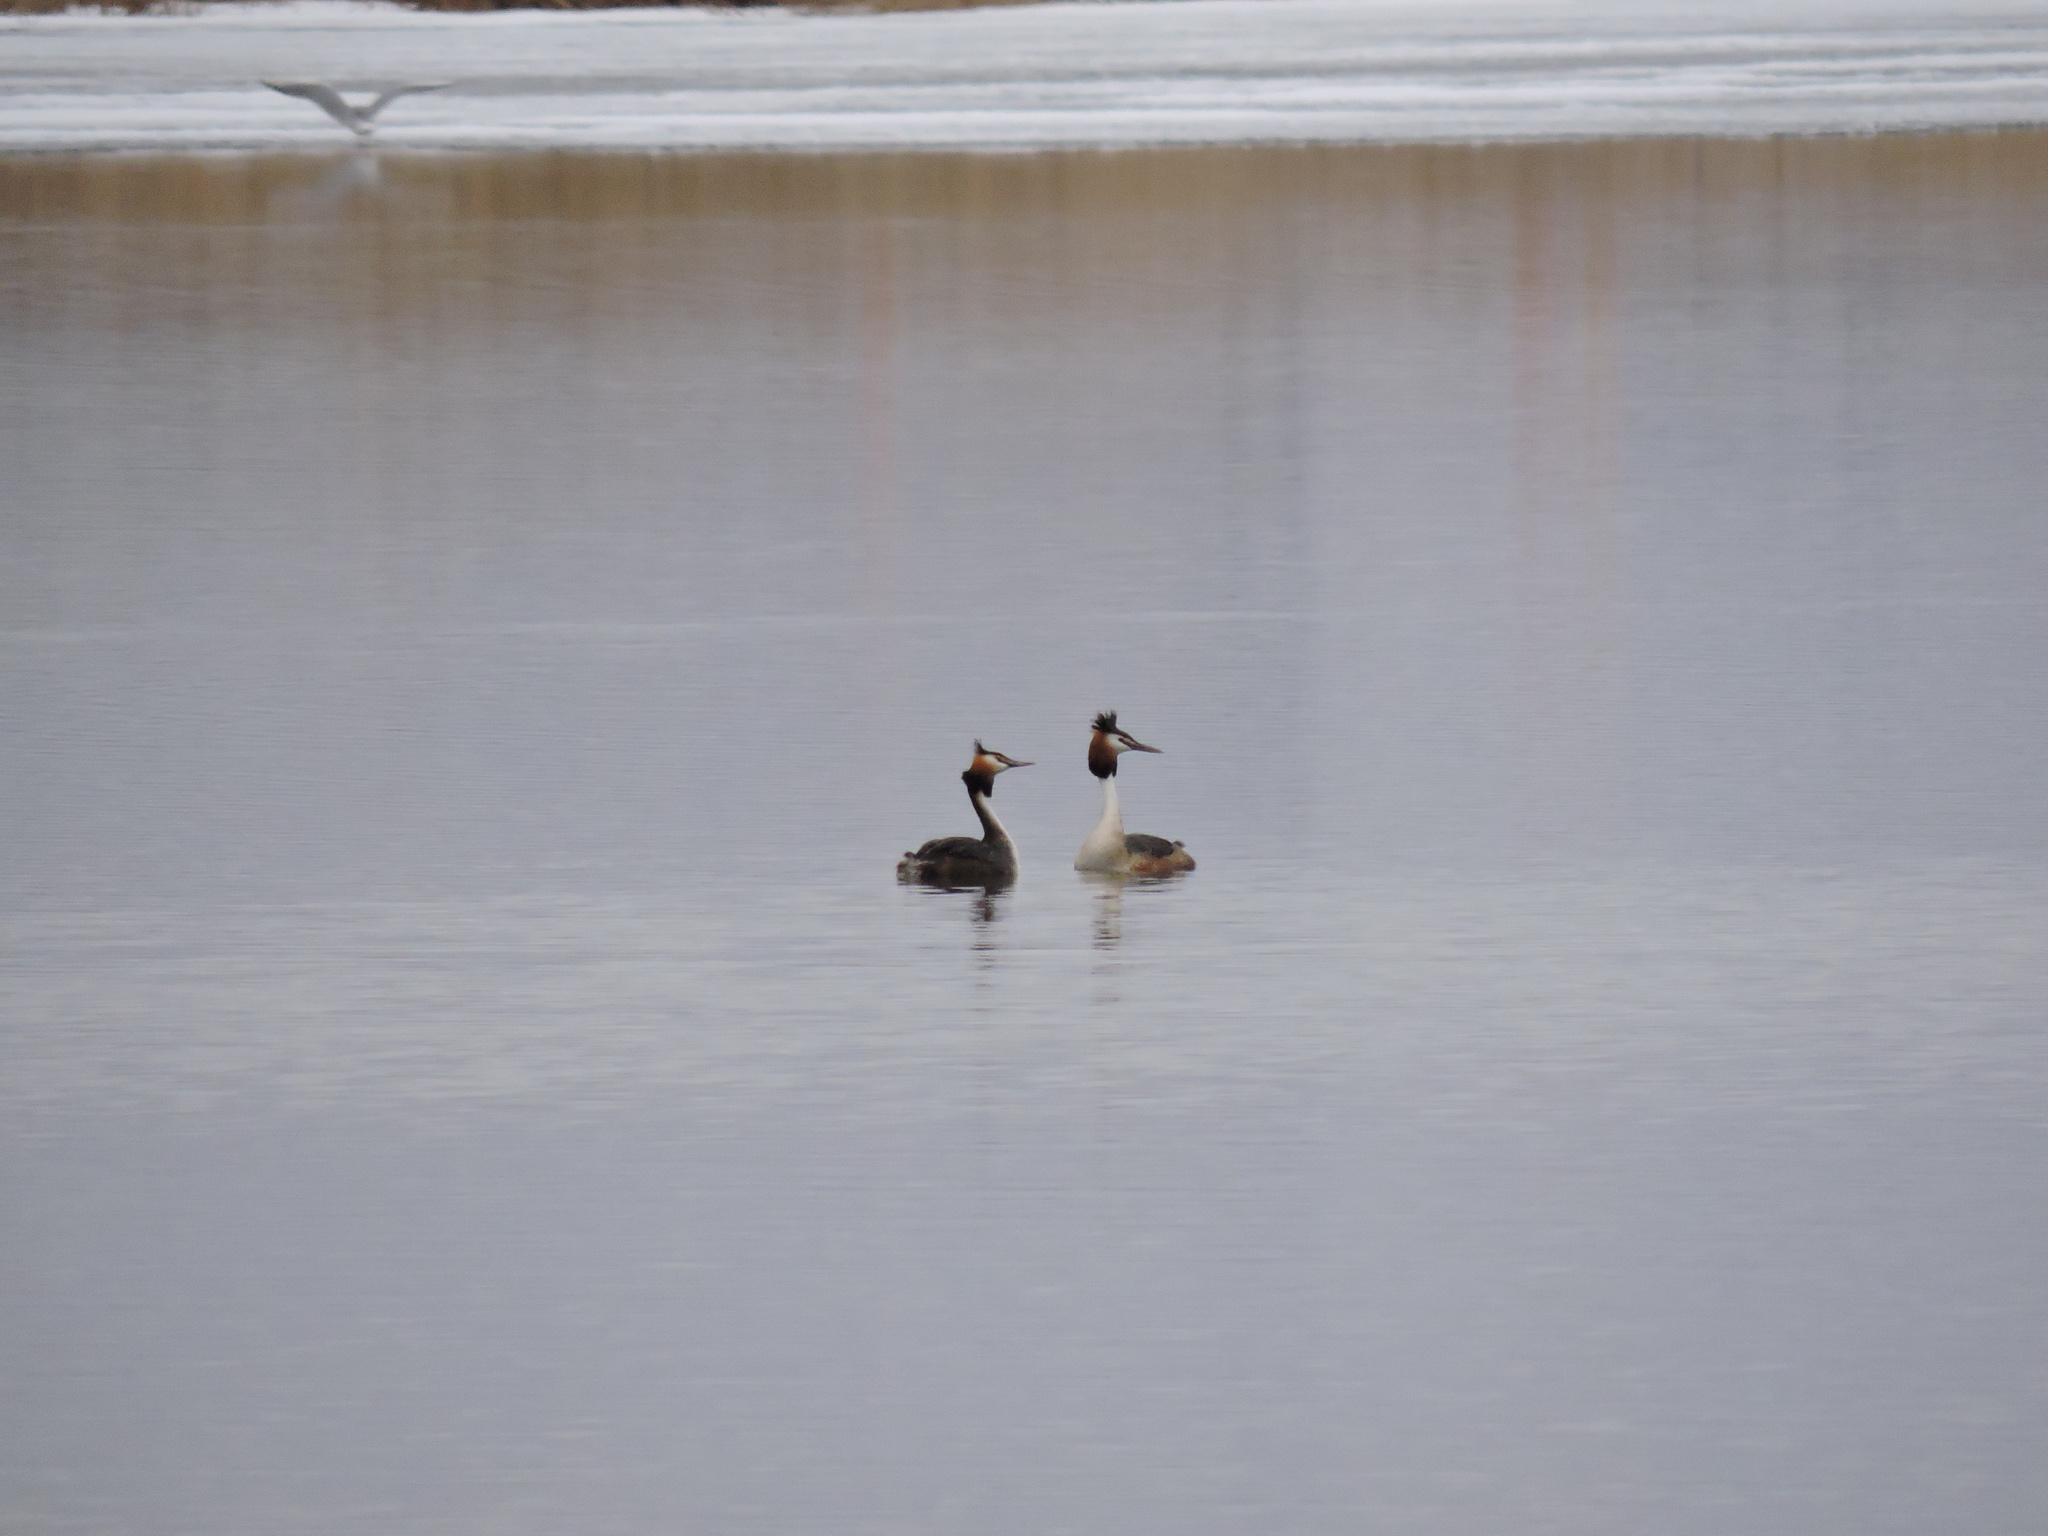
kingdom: Animalia
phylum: Chordata
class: Aves
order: Podicipediformes
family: Podicipedidae
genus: Podiceps
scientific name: Podiceps cristatus
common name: Great crested grebe
